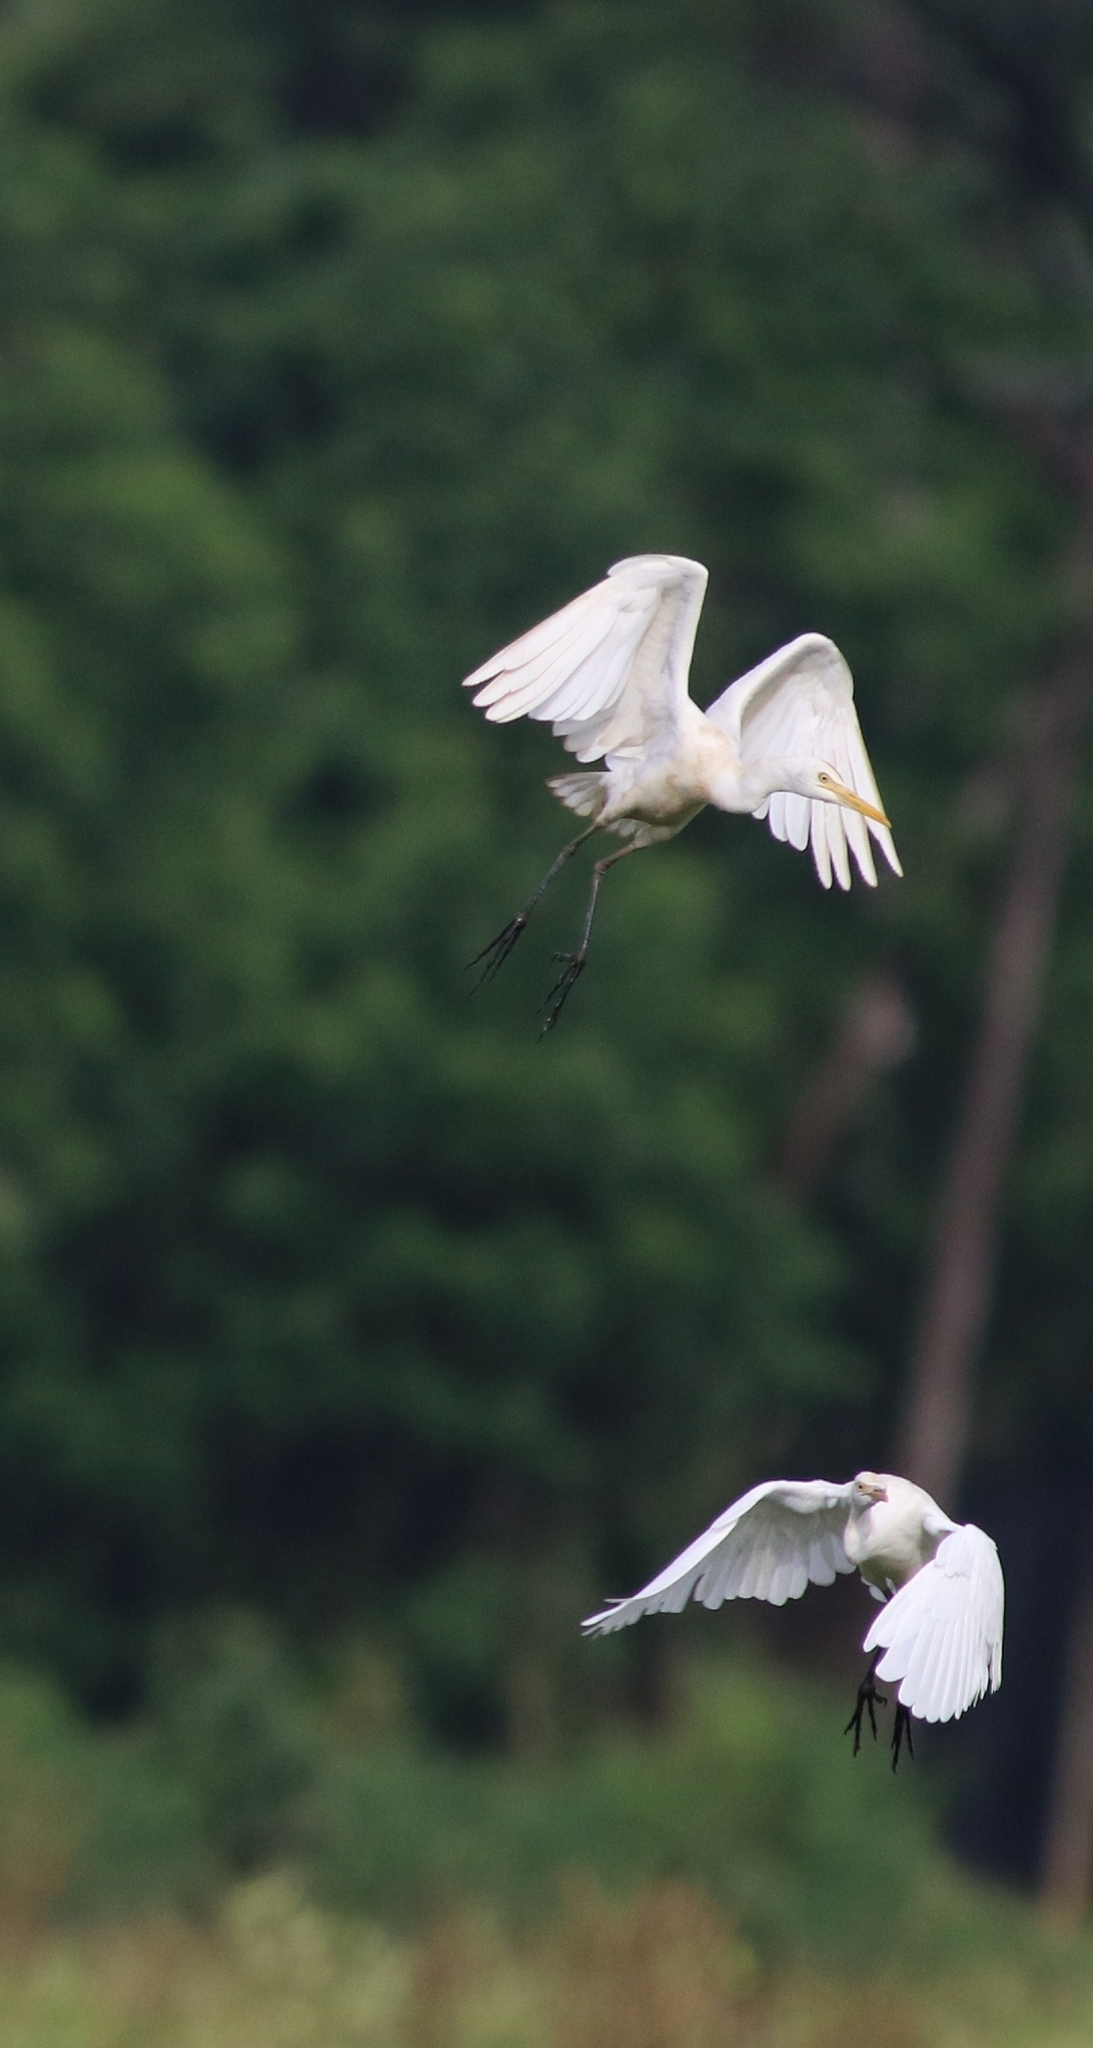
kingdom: Animalia
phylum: Chordata
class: Aves
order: Pelecaniformes
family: Ardeidae
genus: Bubulcus
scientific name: Bubulcus coromandus
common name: Eastern cattle egret
